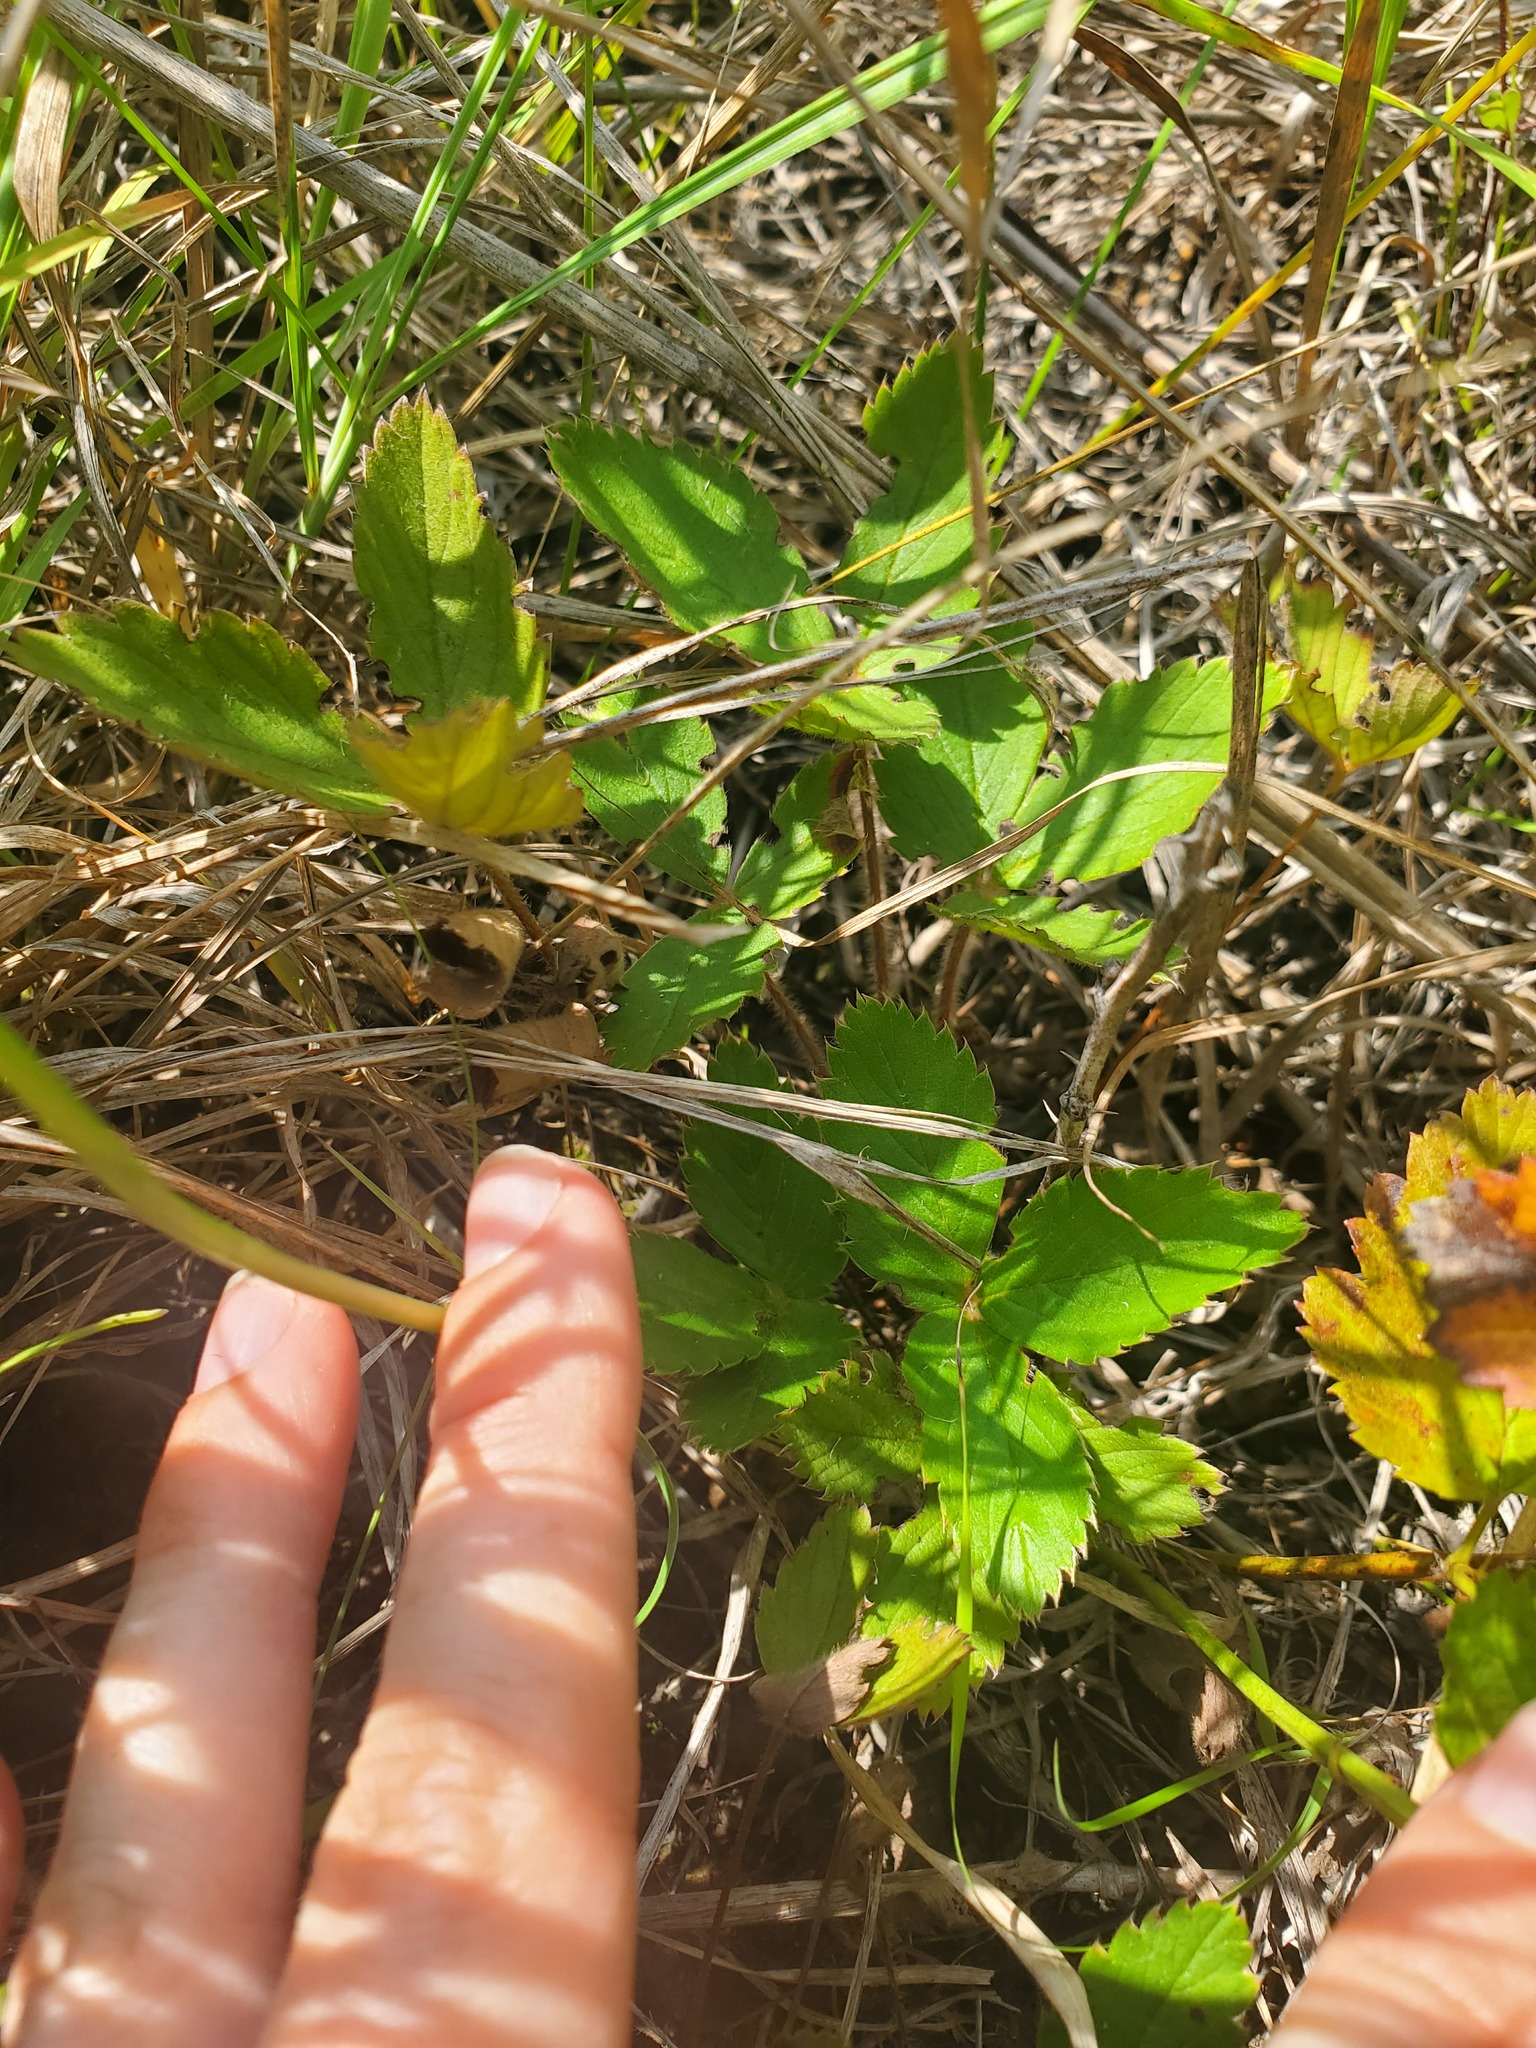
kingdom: Plantae
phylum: Tracheophyta
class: Magnoliopsida
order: Rosales
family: Rosaceae
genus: Fragaria
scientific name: Fragaria virginiana
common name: Thickleaved wild strawberry
